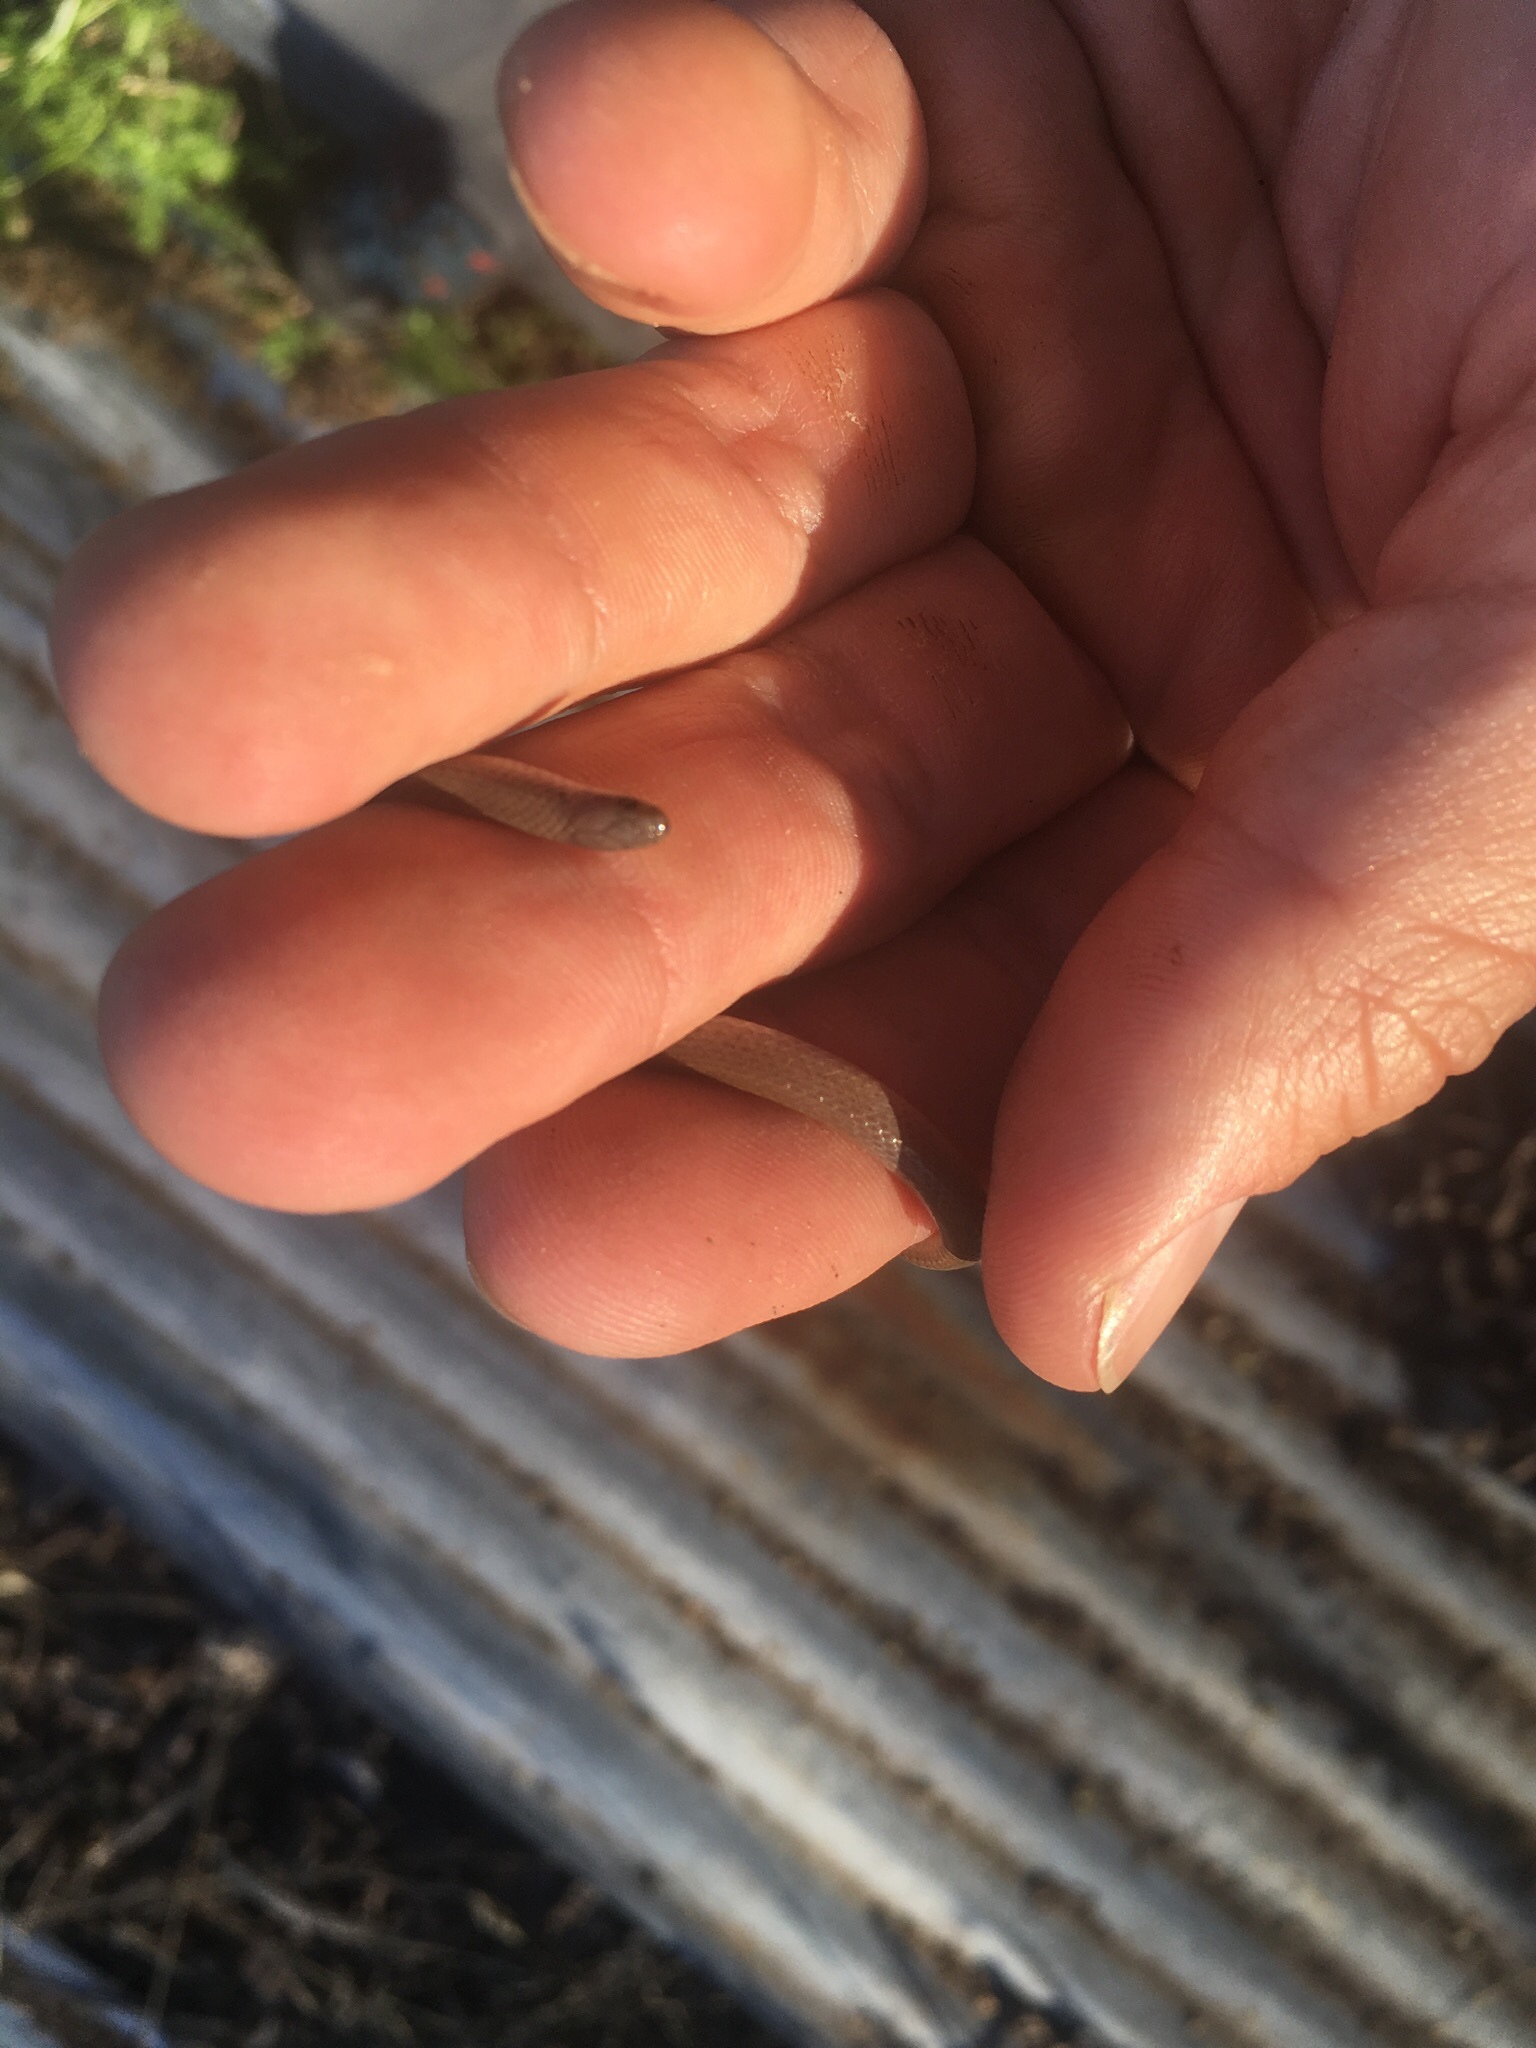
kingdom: Animalia
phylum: Chordata
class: Squamata
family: Colubridae
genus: Tantilla
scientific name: Tantilla gracilis
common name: Flathead snake
